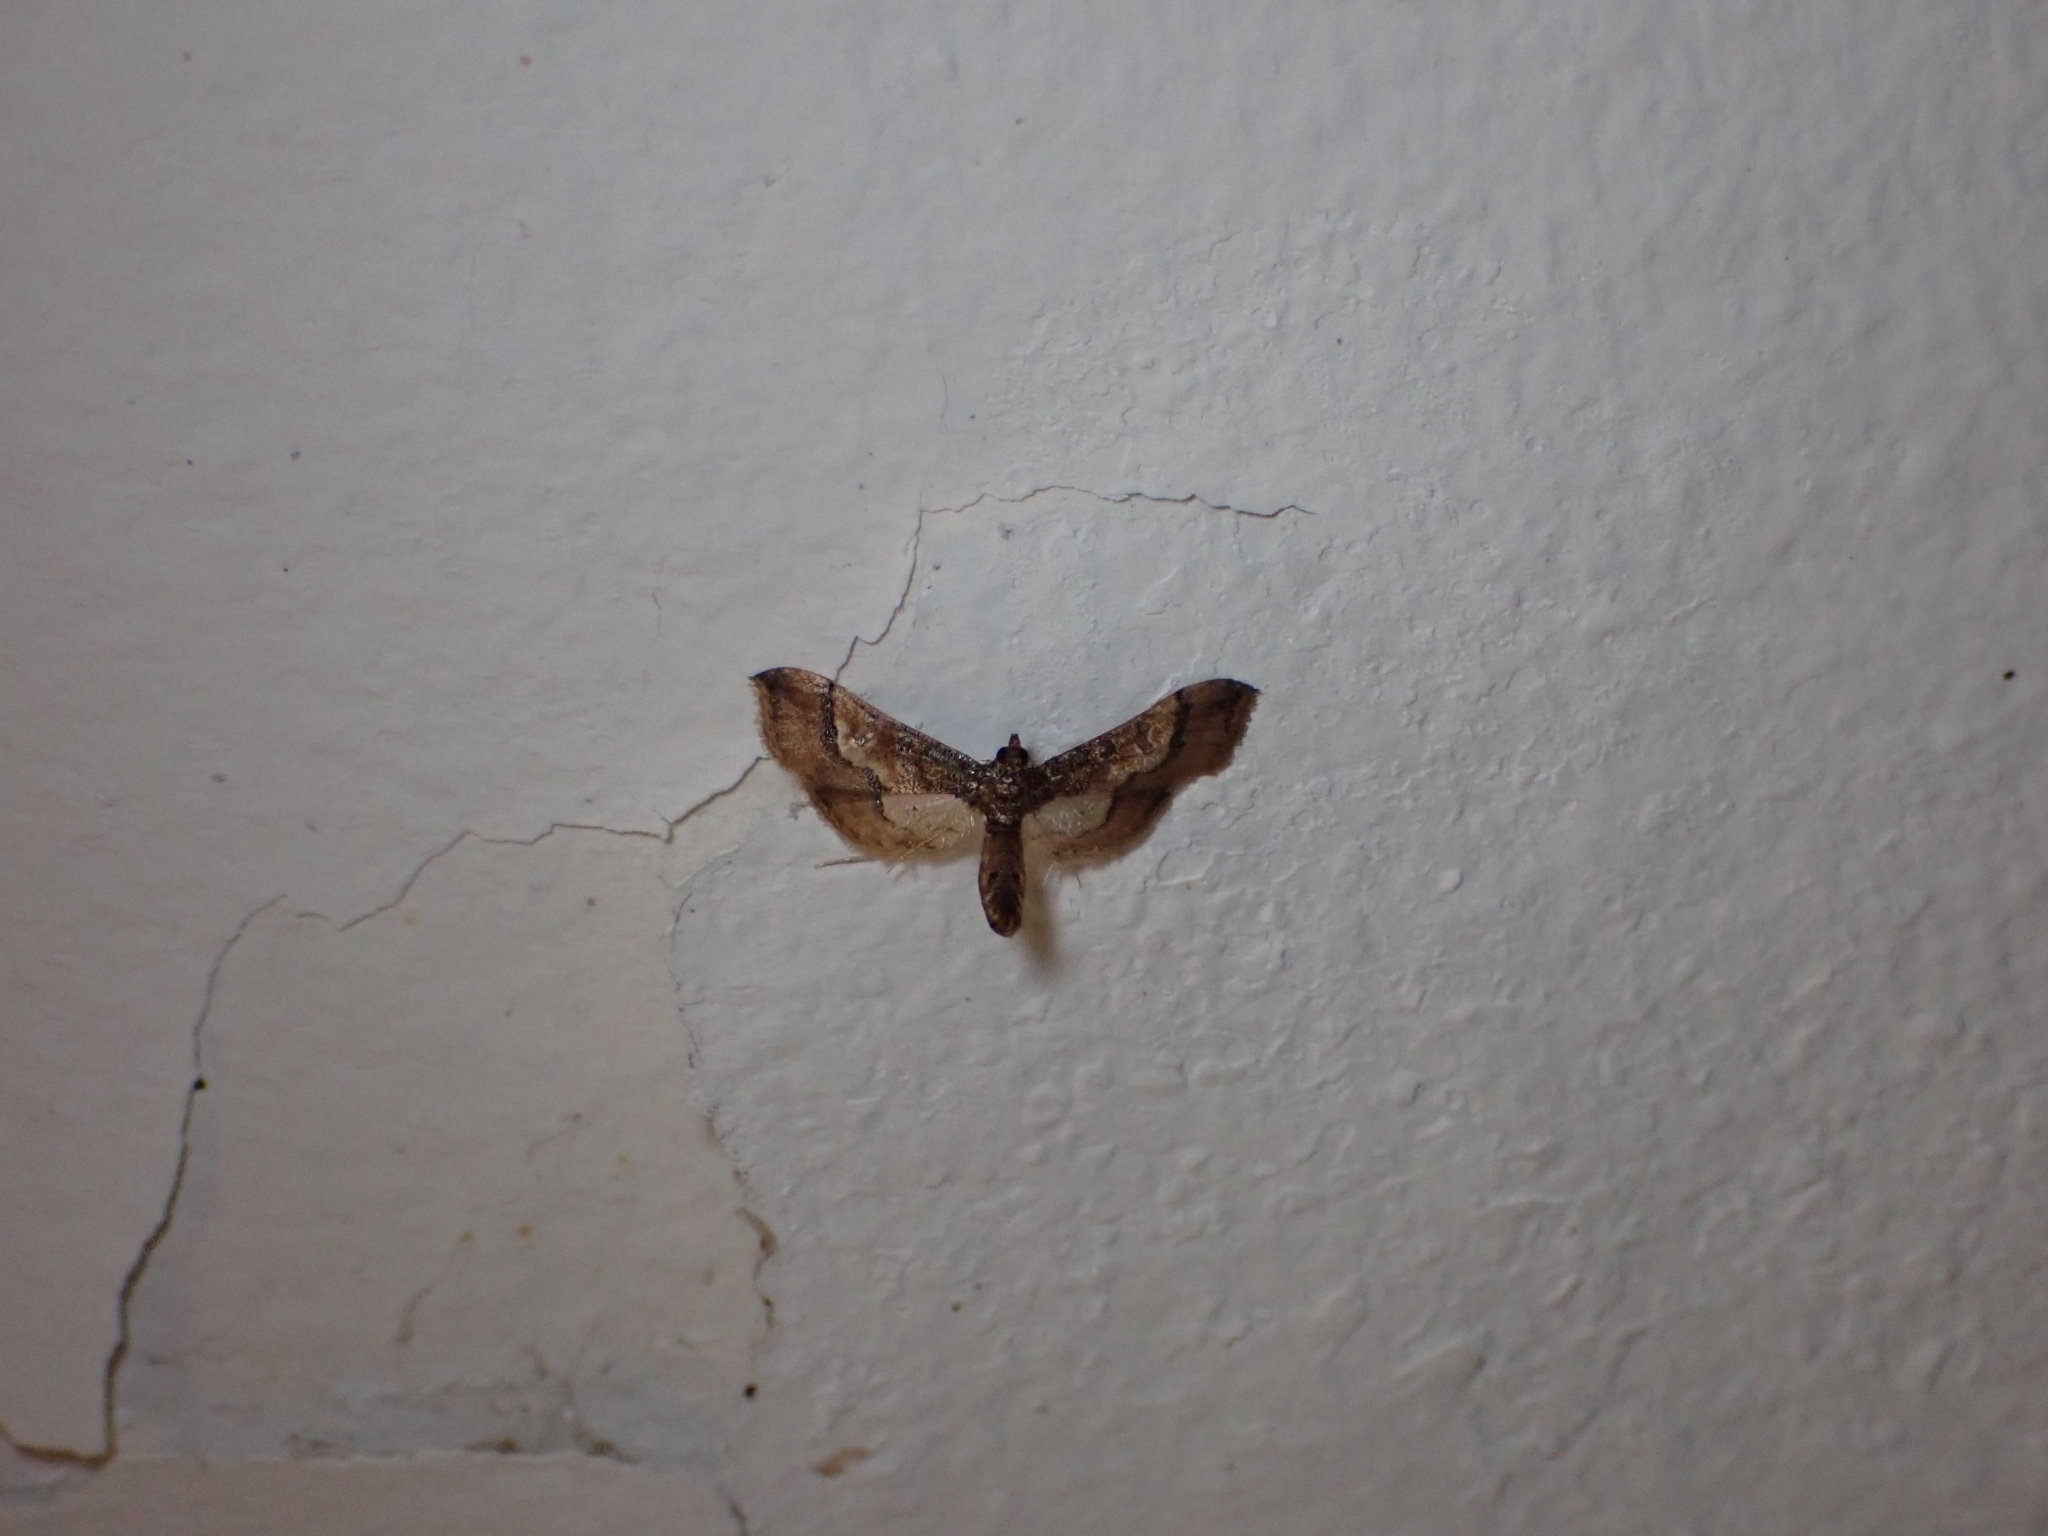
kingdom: Animalia
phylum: Arthropoda
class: Insecta
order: Lepidoptera
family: Crambidae
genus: Hydriris
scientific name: Hydriris ornatalis
